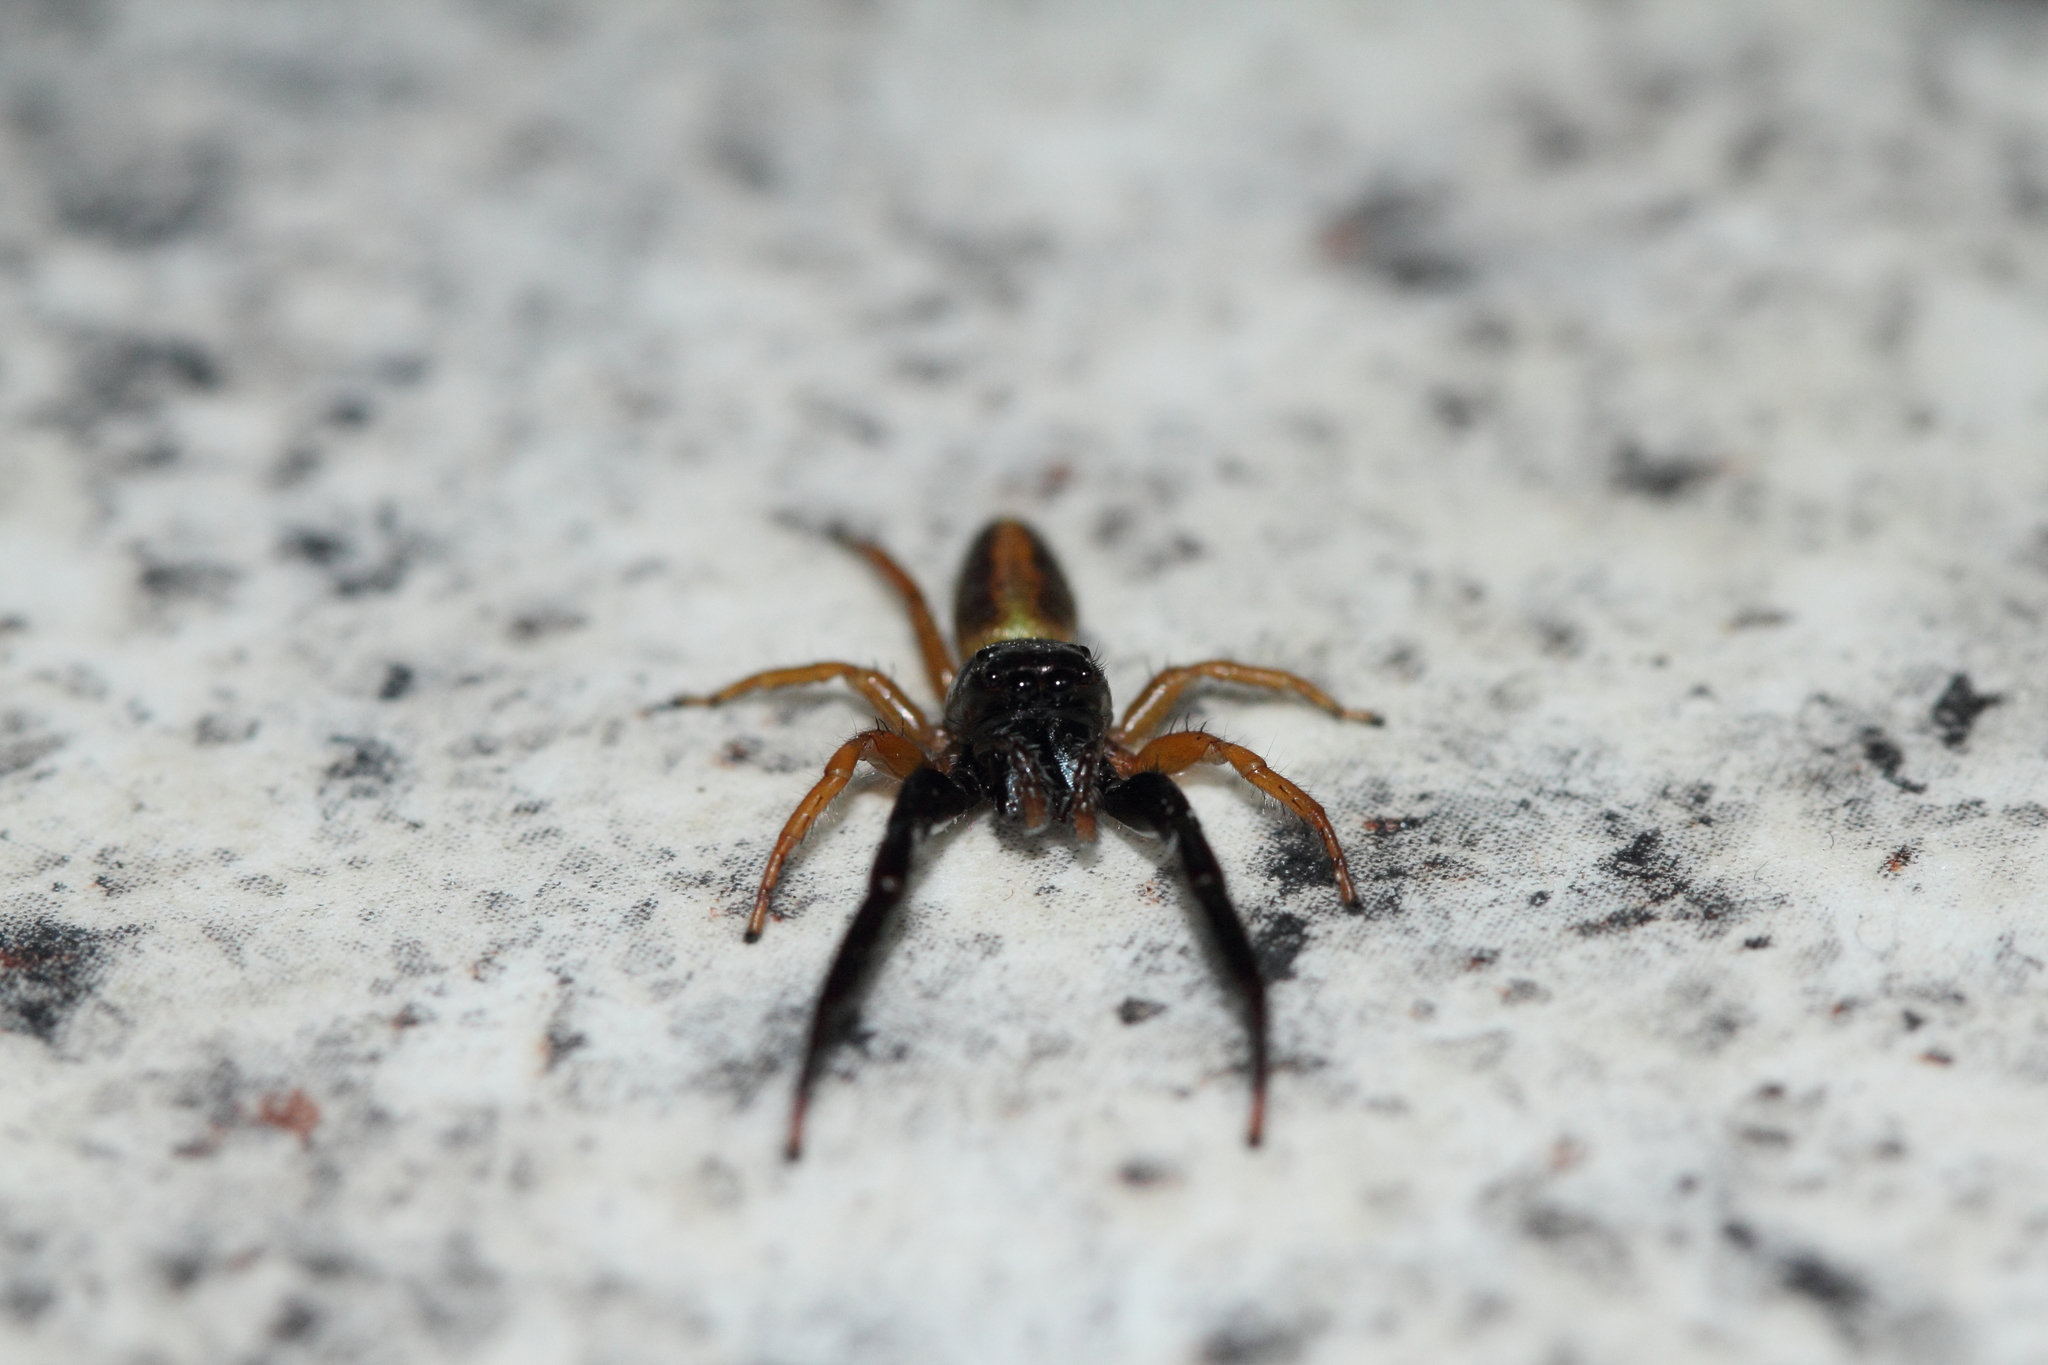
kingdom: Animalia
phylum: Arthropoda
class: Arachnida
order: Araneae
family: Salticidae
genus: Trite
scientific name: Trite planiceps
